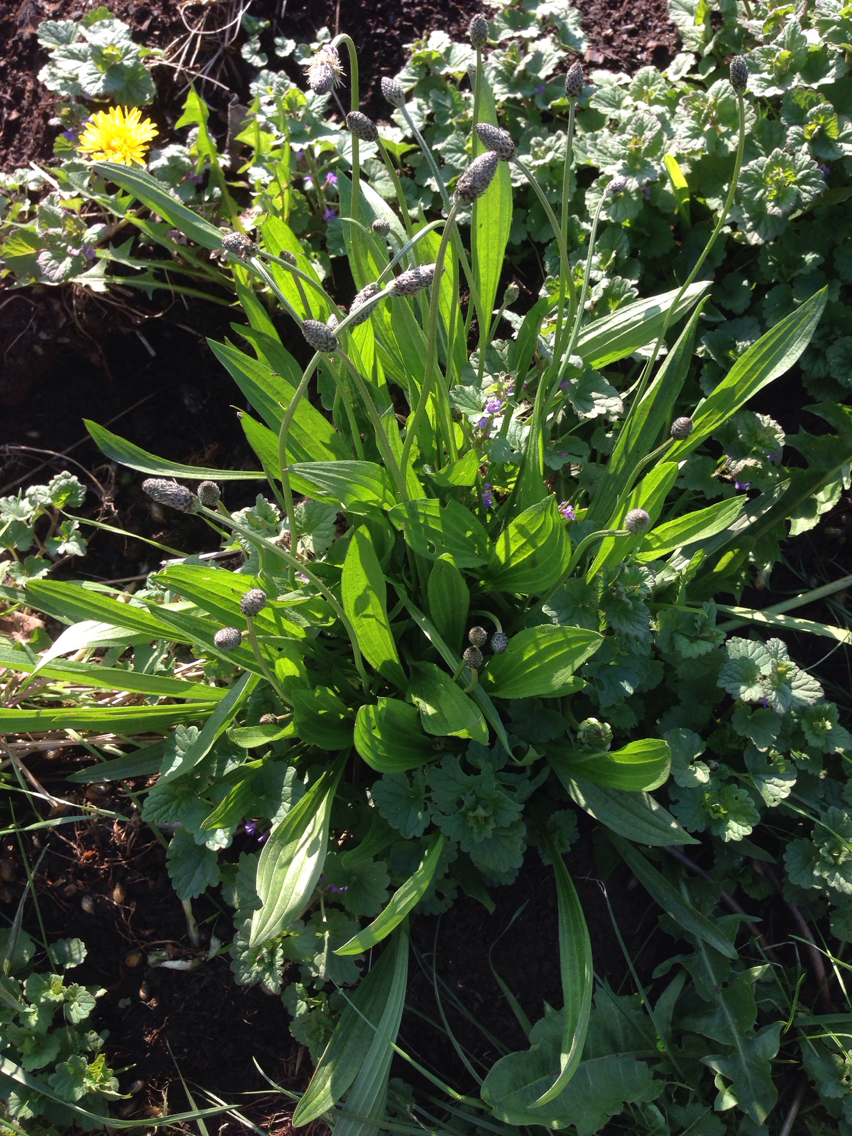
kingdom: Plantae
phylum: Tracheophyta
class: Magnoliopsida
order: Lamiales
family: Plantaginaceae
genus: Plantago
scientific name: Plantago lanceolata
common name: Ribwort plantain
